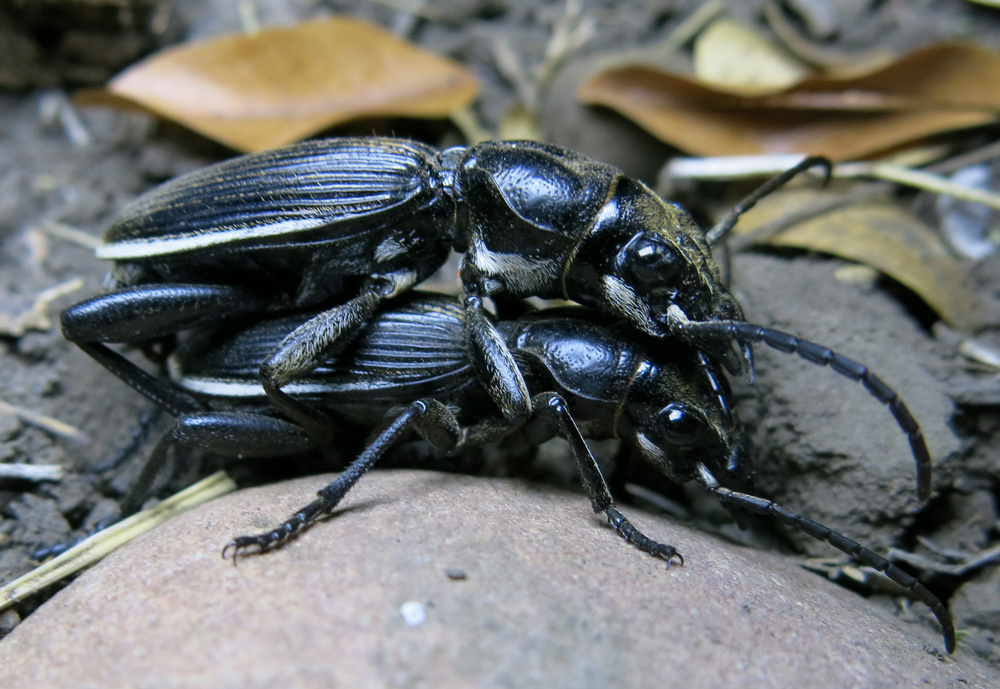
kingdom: Animalia
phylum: Arthropoda
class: Insecta
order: Coleoptera
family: Carabidae
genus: Anthia
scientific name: Anthia massilicata
